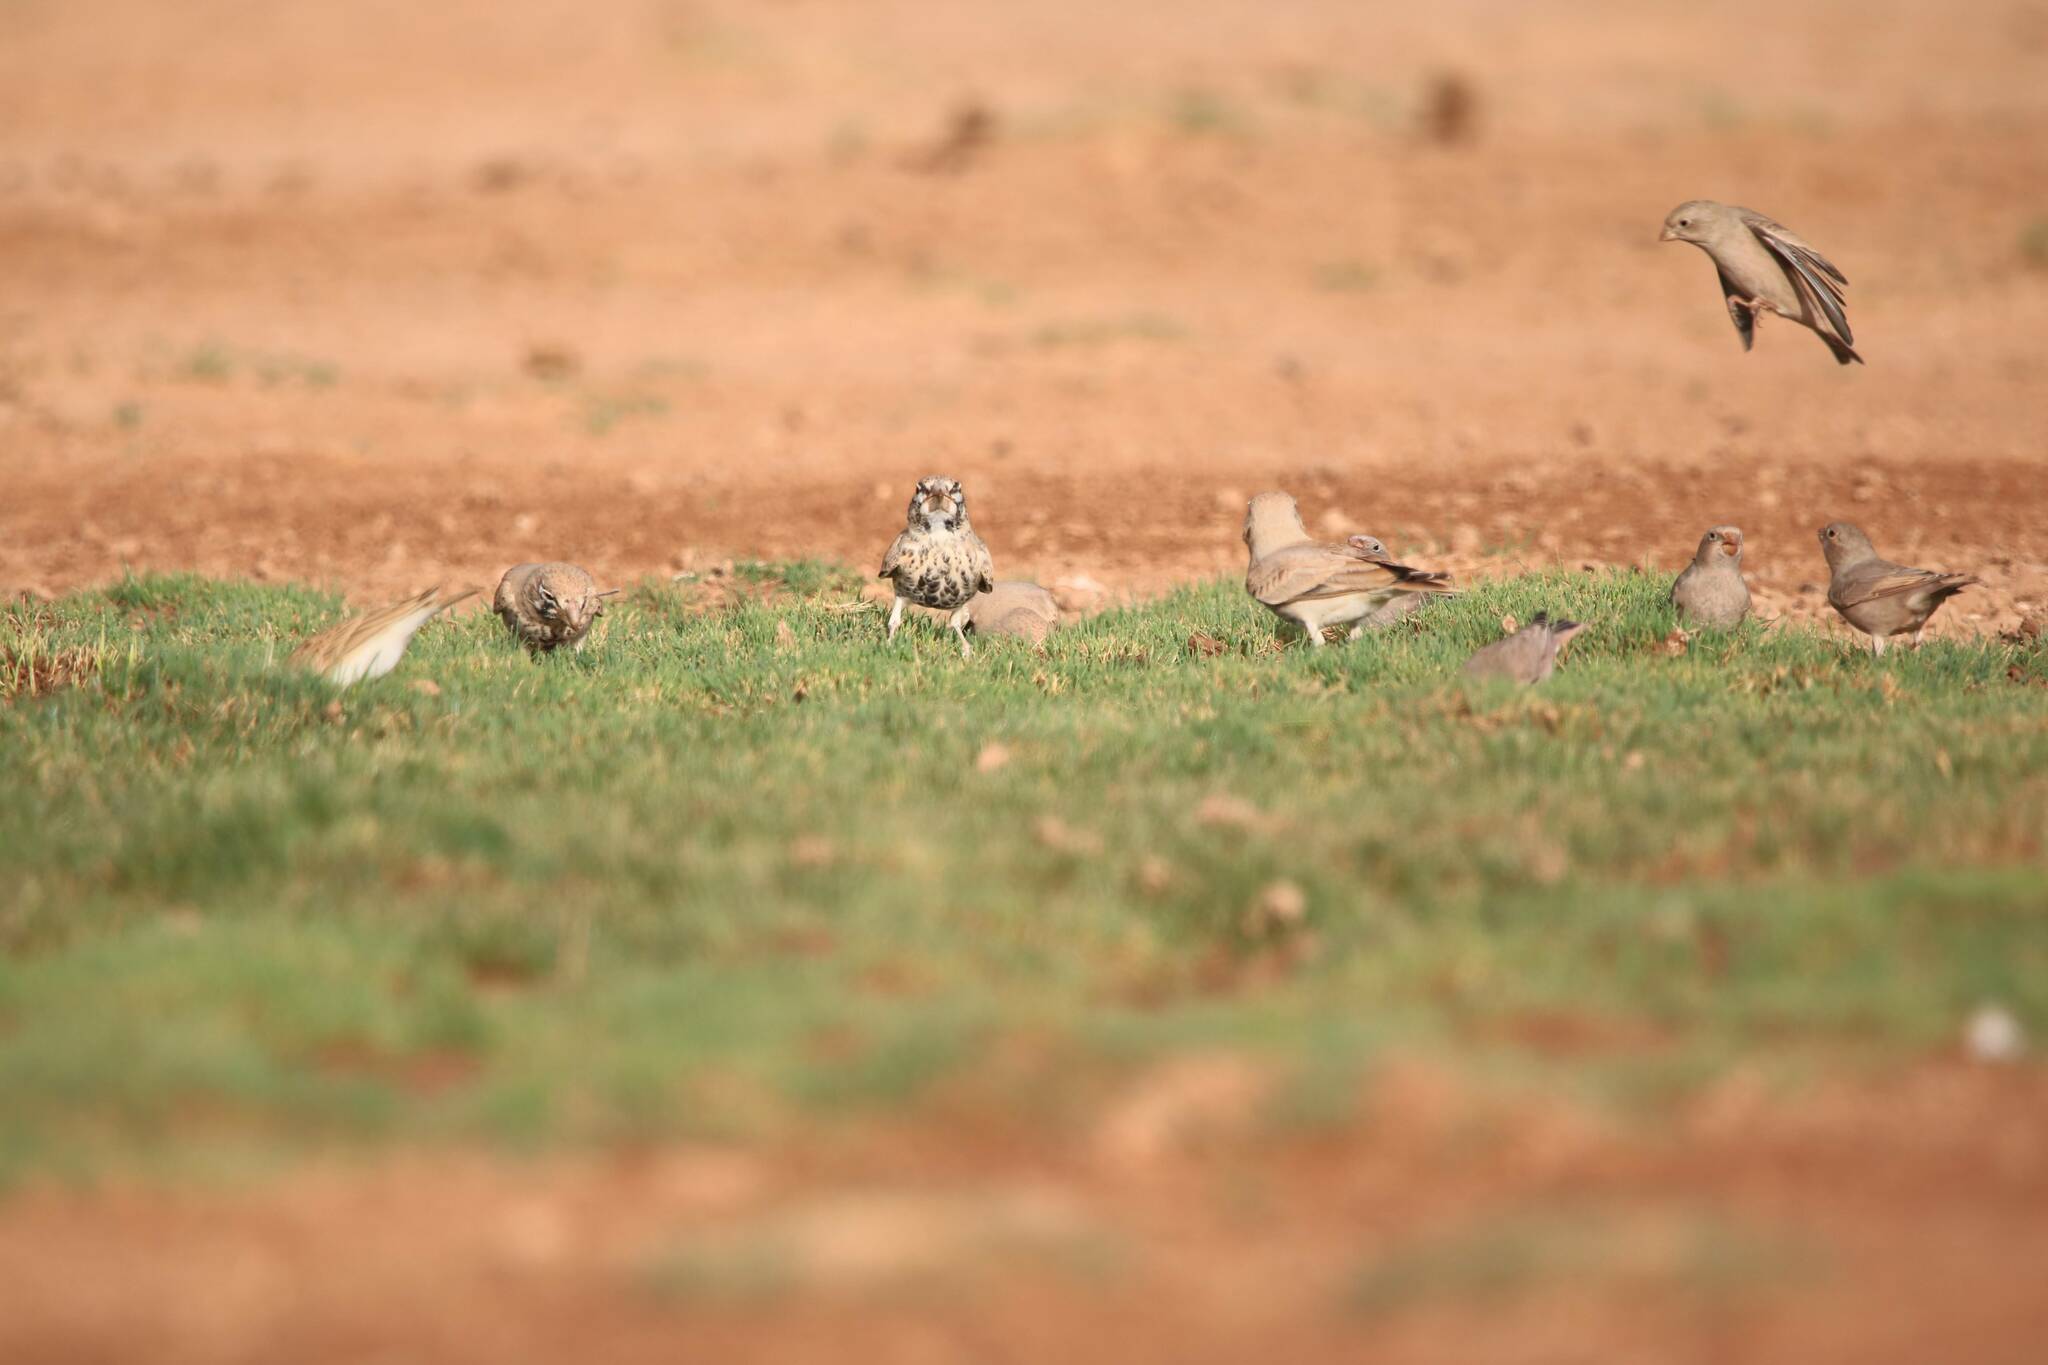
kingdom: Animalia
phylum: Chordata
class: Aves
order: Passeriformes
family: Alaudidae
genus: Ramphocoris
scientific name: Ramphocoris clotbey
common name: Thick-billed lark
